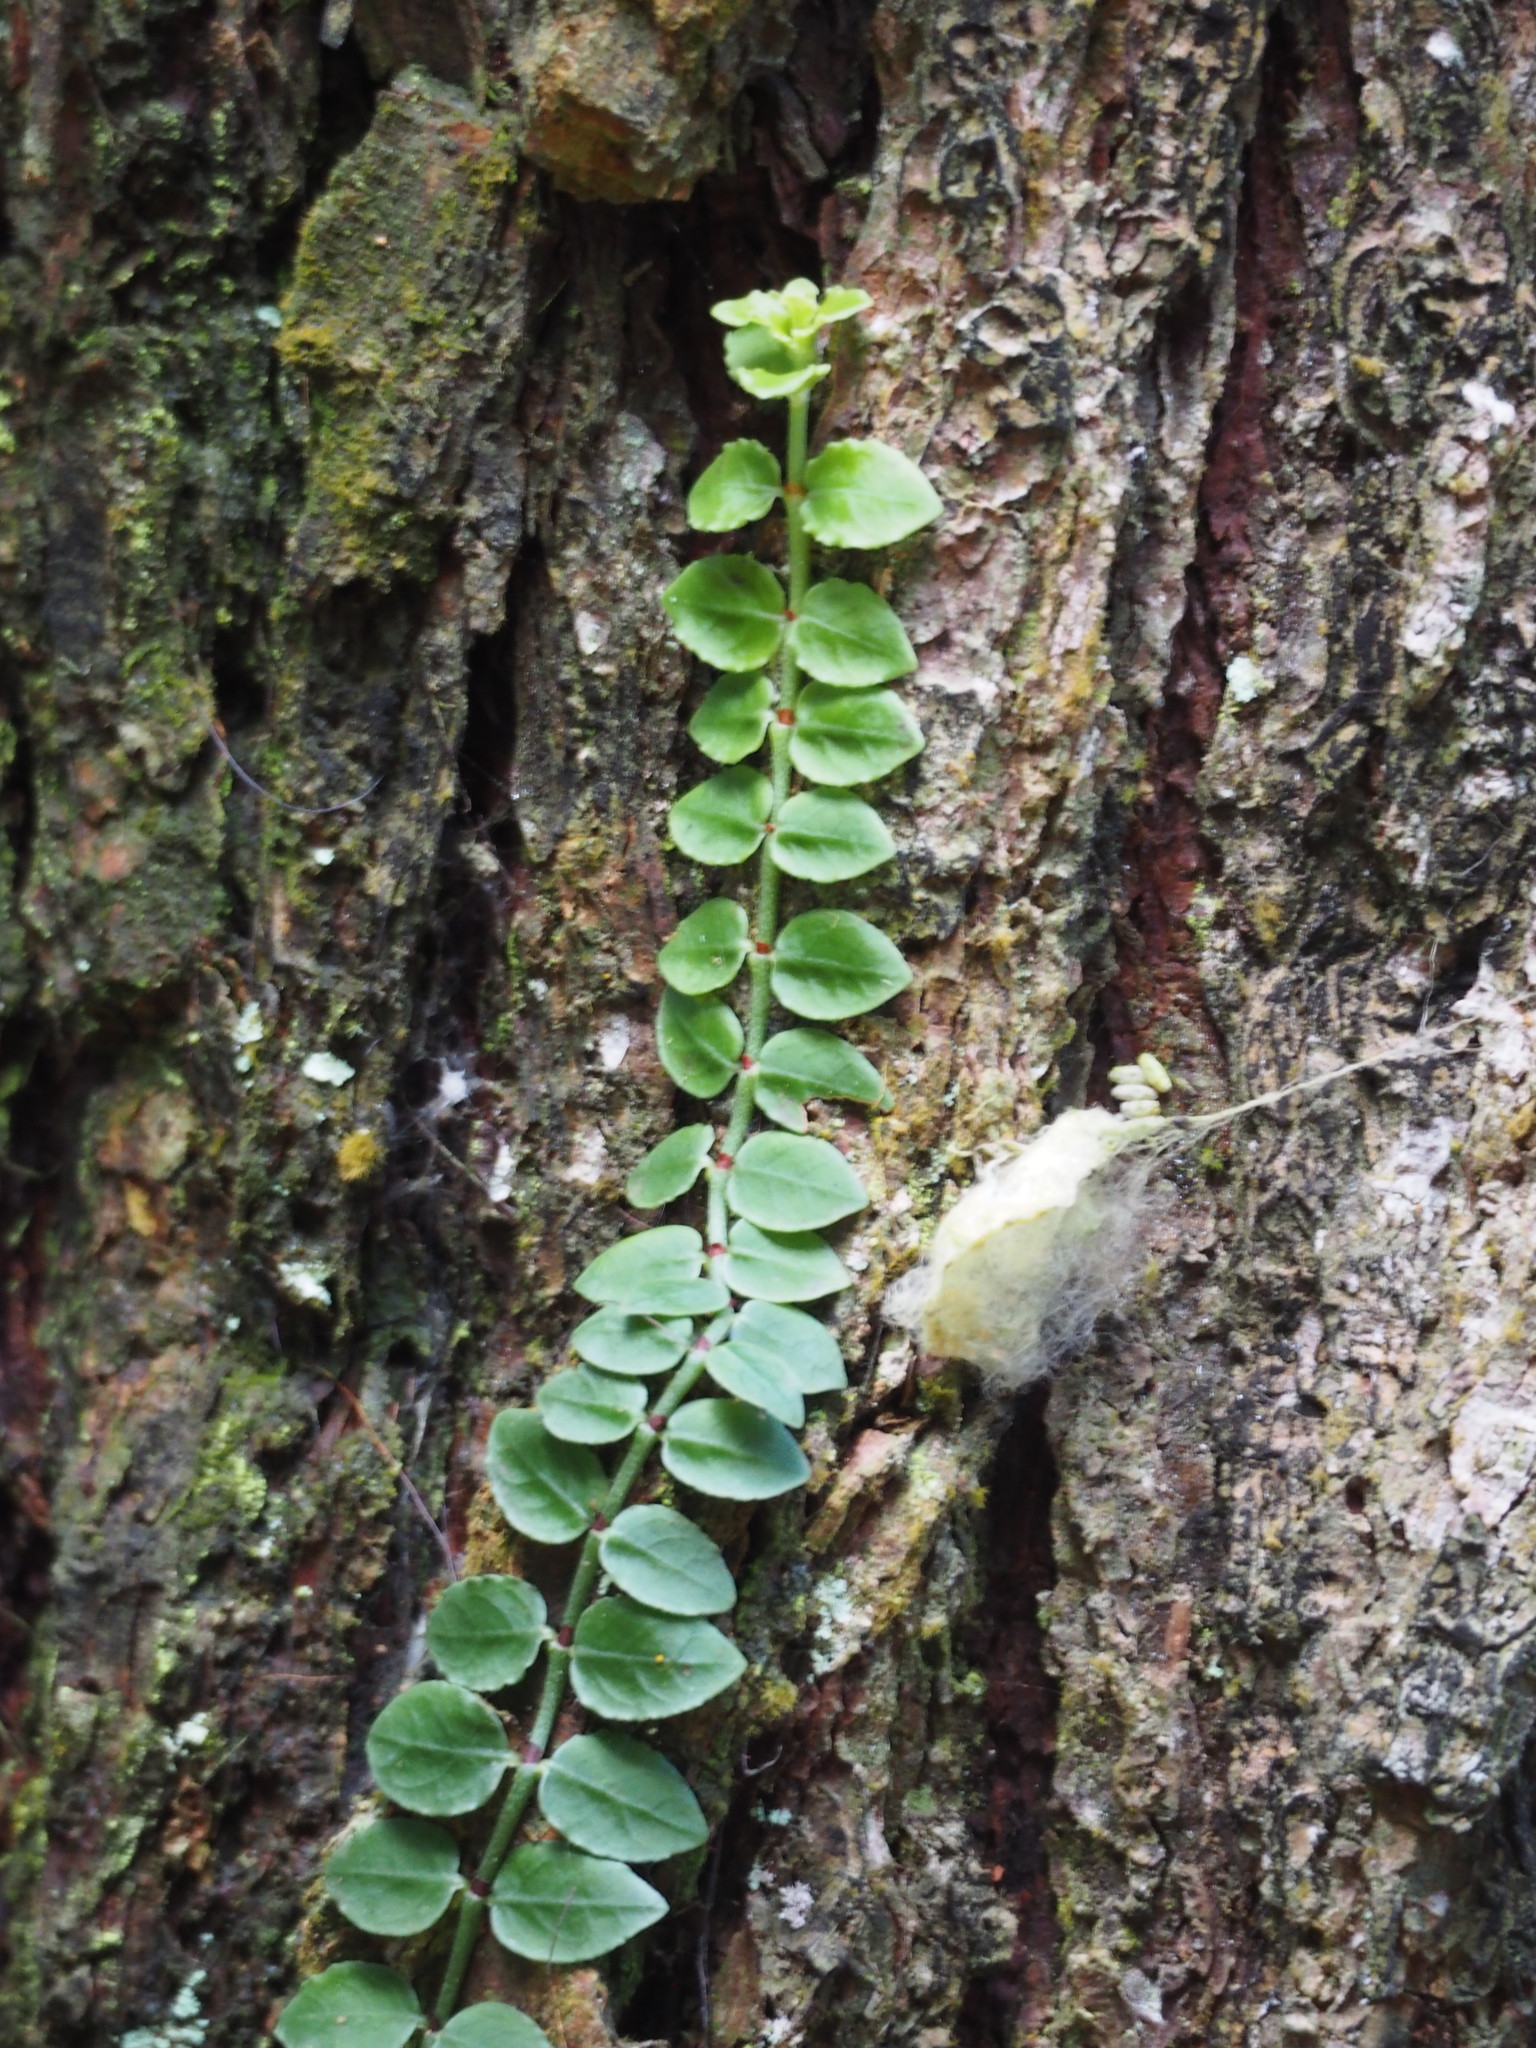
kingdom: Plantae
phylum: Tracheophyta
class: Magnoliopsida
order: Gentianales
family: Rubiaceae
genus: Psychotria
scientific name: Psychotria serpens
